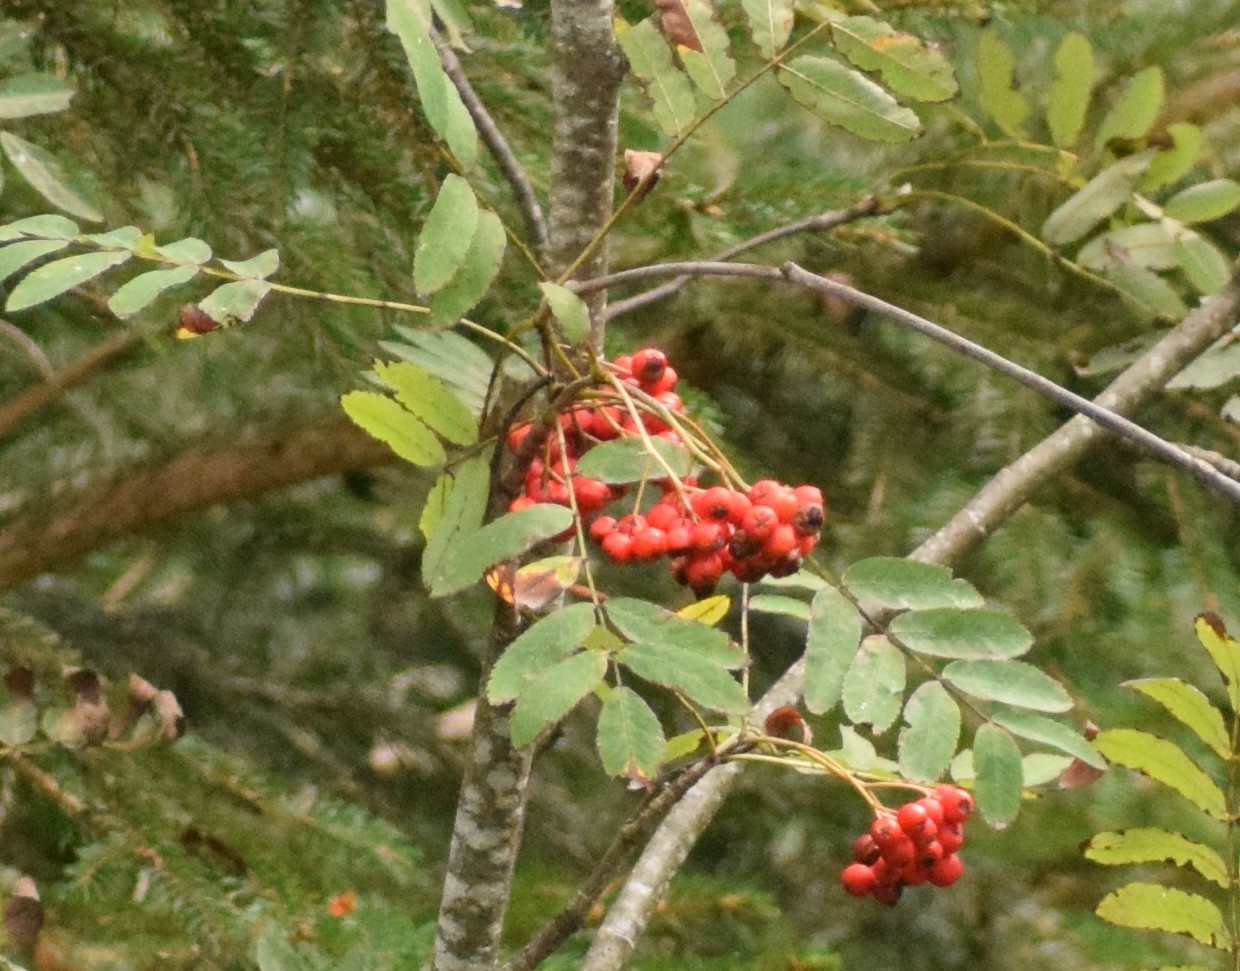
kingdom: Plantae
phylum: Tracheophyta
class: Magnoliopsida
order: Rosales
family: Rosaceae
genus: Sorbus
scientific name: Sorbus aucuparia
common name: Rowan
